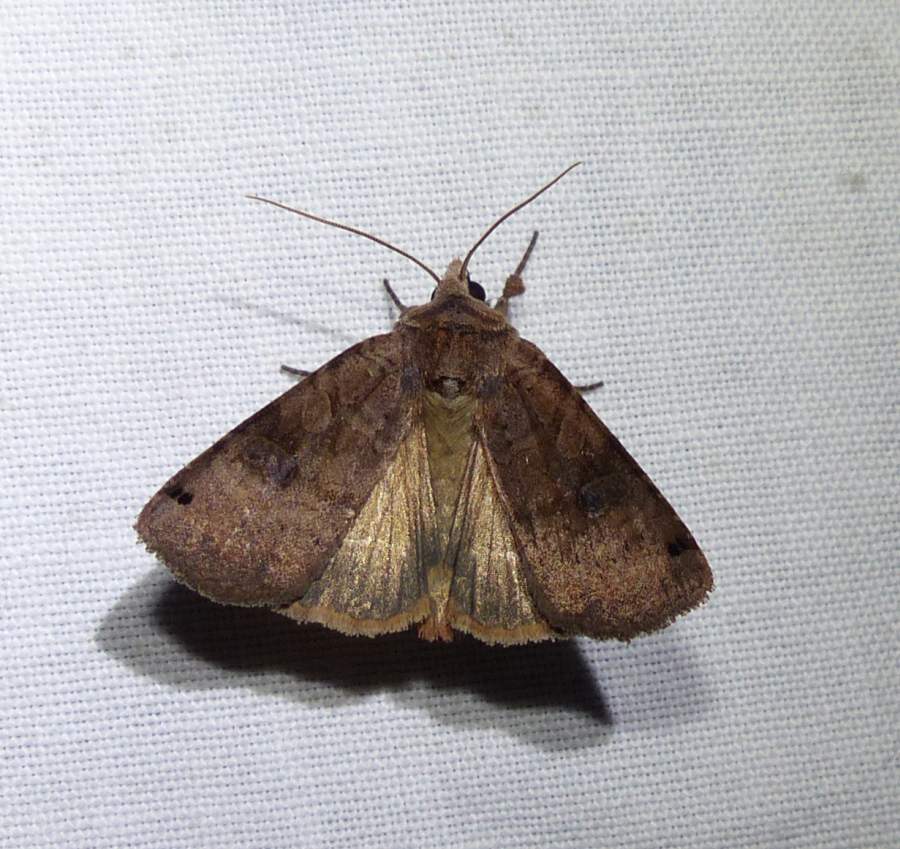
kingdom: Animalia
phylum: Arthropoda
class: Insecta
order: Lepidoptera
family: Noctuidae
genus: Xestia
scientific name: Xestia smithii
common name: Smith's dart
